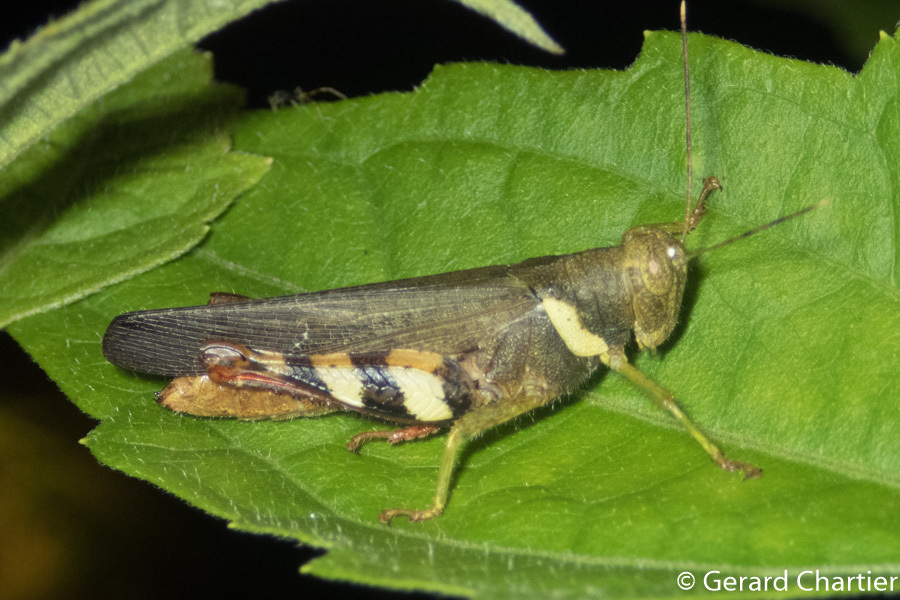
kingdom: Animalia
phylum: Arthropoda
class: Insecta
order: Orthoptera
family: Acrididae
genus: Apalacris
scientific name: Apalacris varicornis
